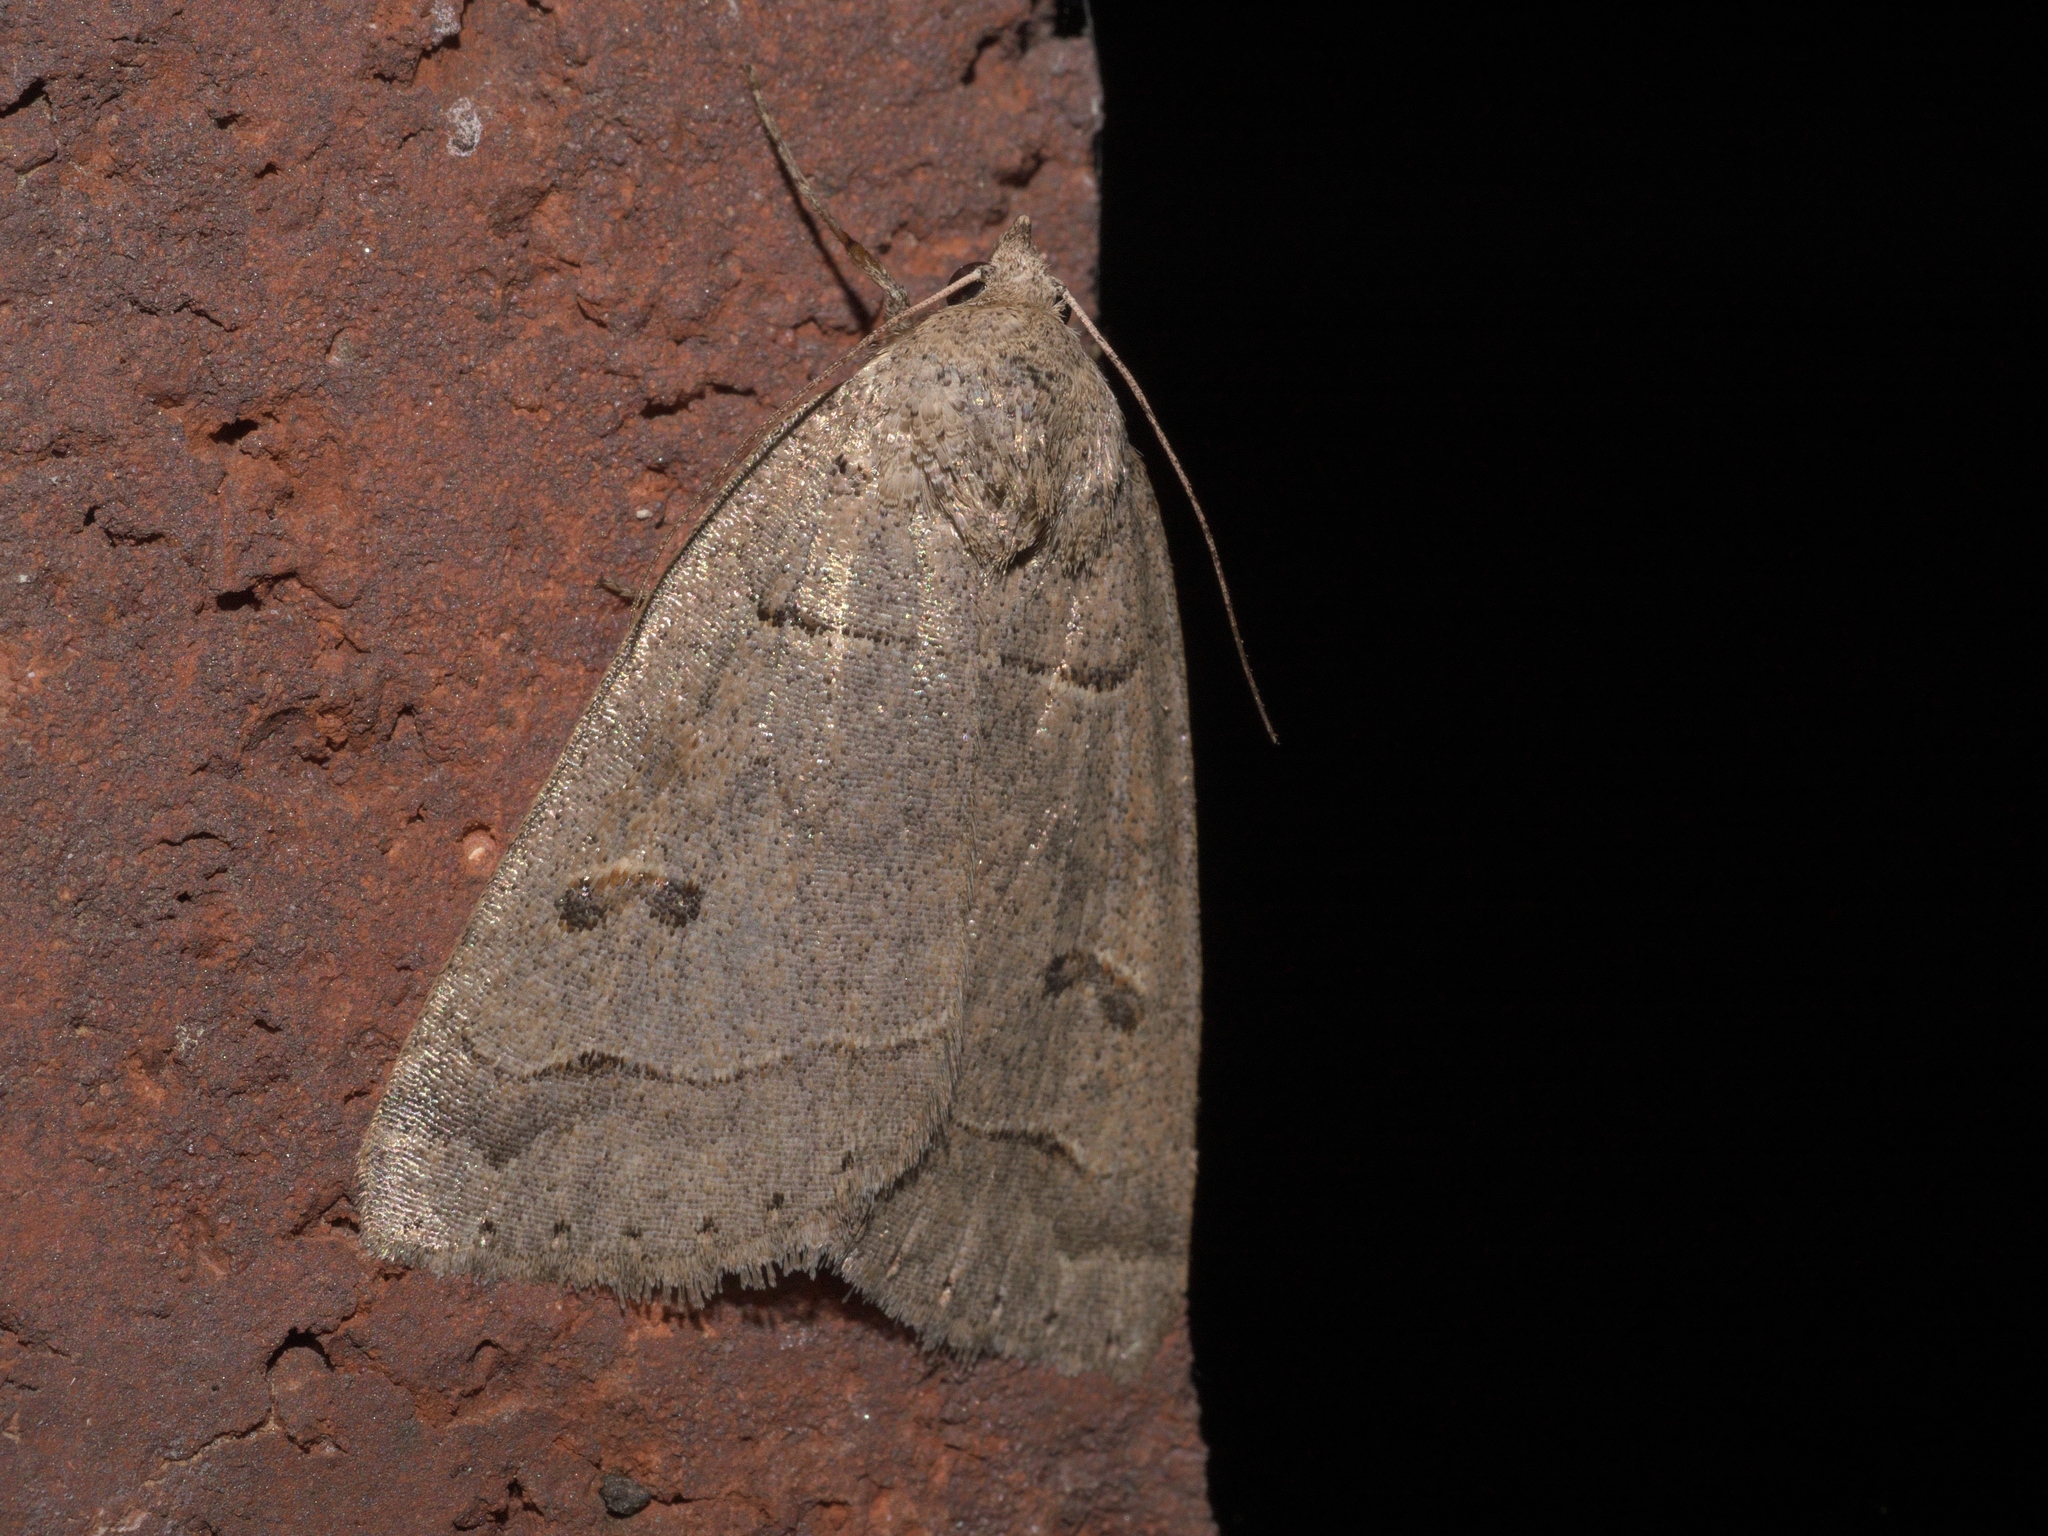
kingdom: Animalia
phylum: Arthropoda
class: Insecta
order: Lepidoptera
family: Erebidae
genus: Phoberia
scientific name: Phoberia atomaris
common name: Common oak moth
